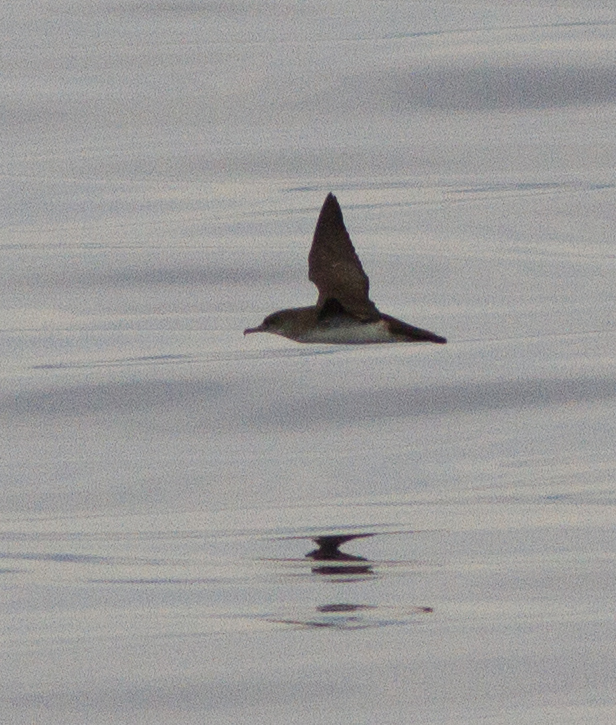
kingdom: Animalia
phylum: Chordata
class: Aves
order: Procellariiformes
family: Procellariidae
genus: Puffinus
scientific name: Puffinus opisthomelas
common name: Black-vented shearwater
